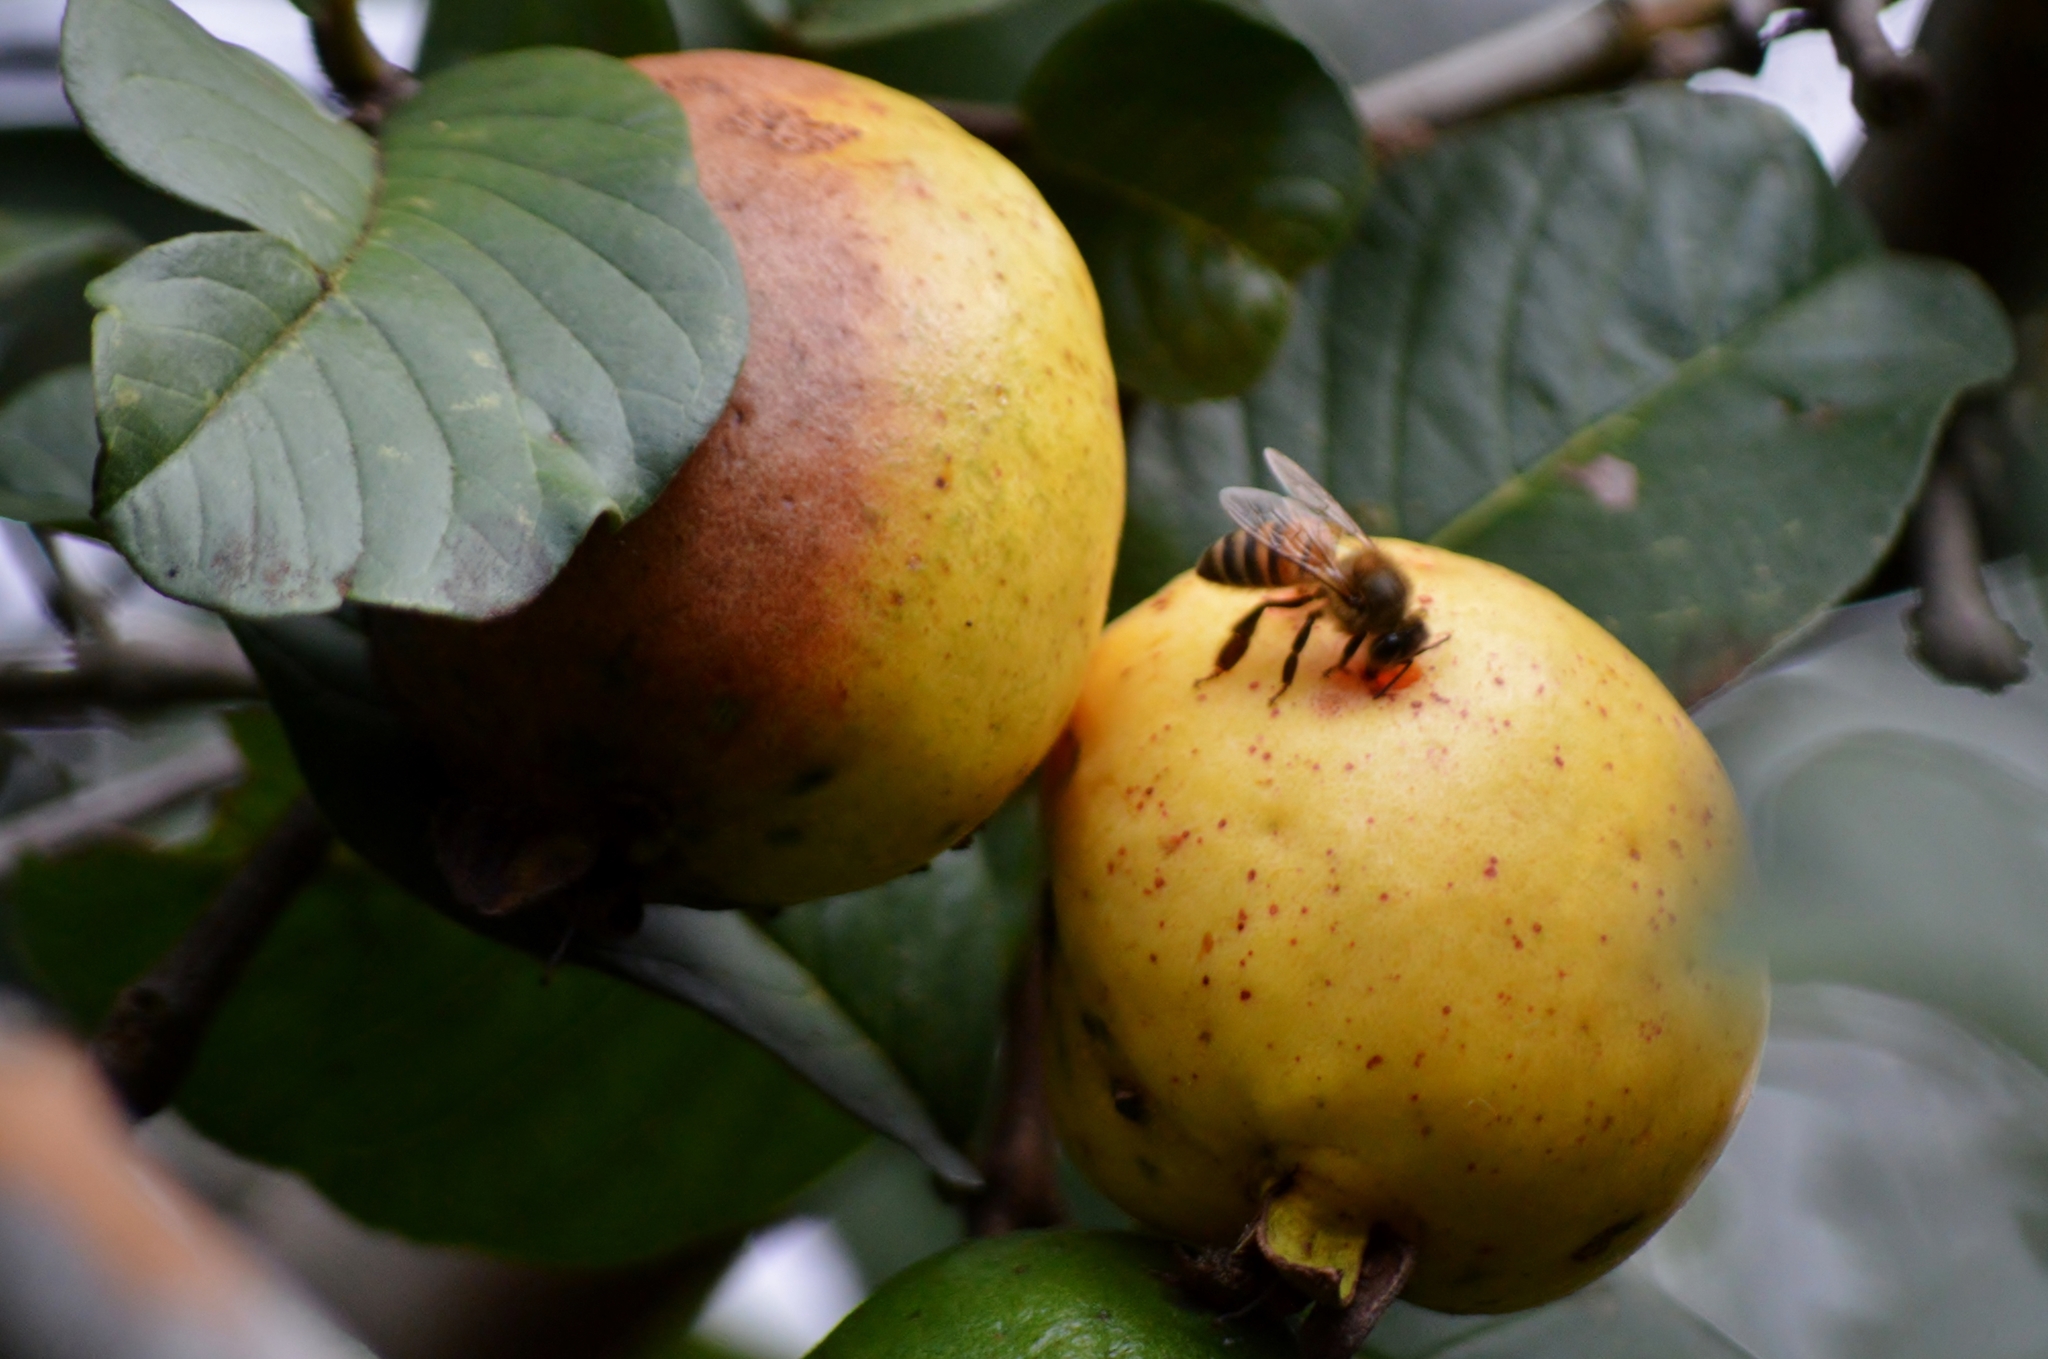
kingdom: Animalia
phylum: Arthropoda
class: Insecta
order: Hymenoptera
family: Apidae
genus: Apis
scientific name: Apis mellifera
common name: Honey bee
